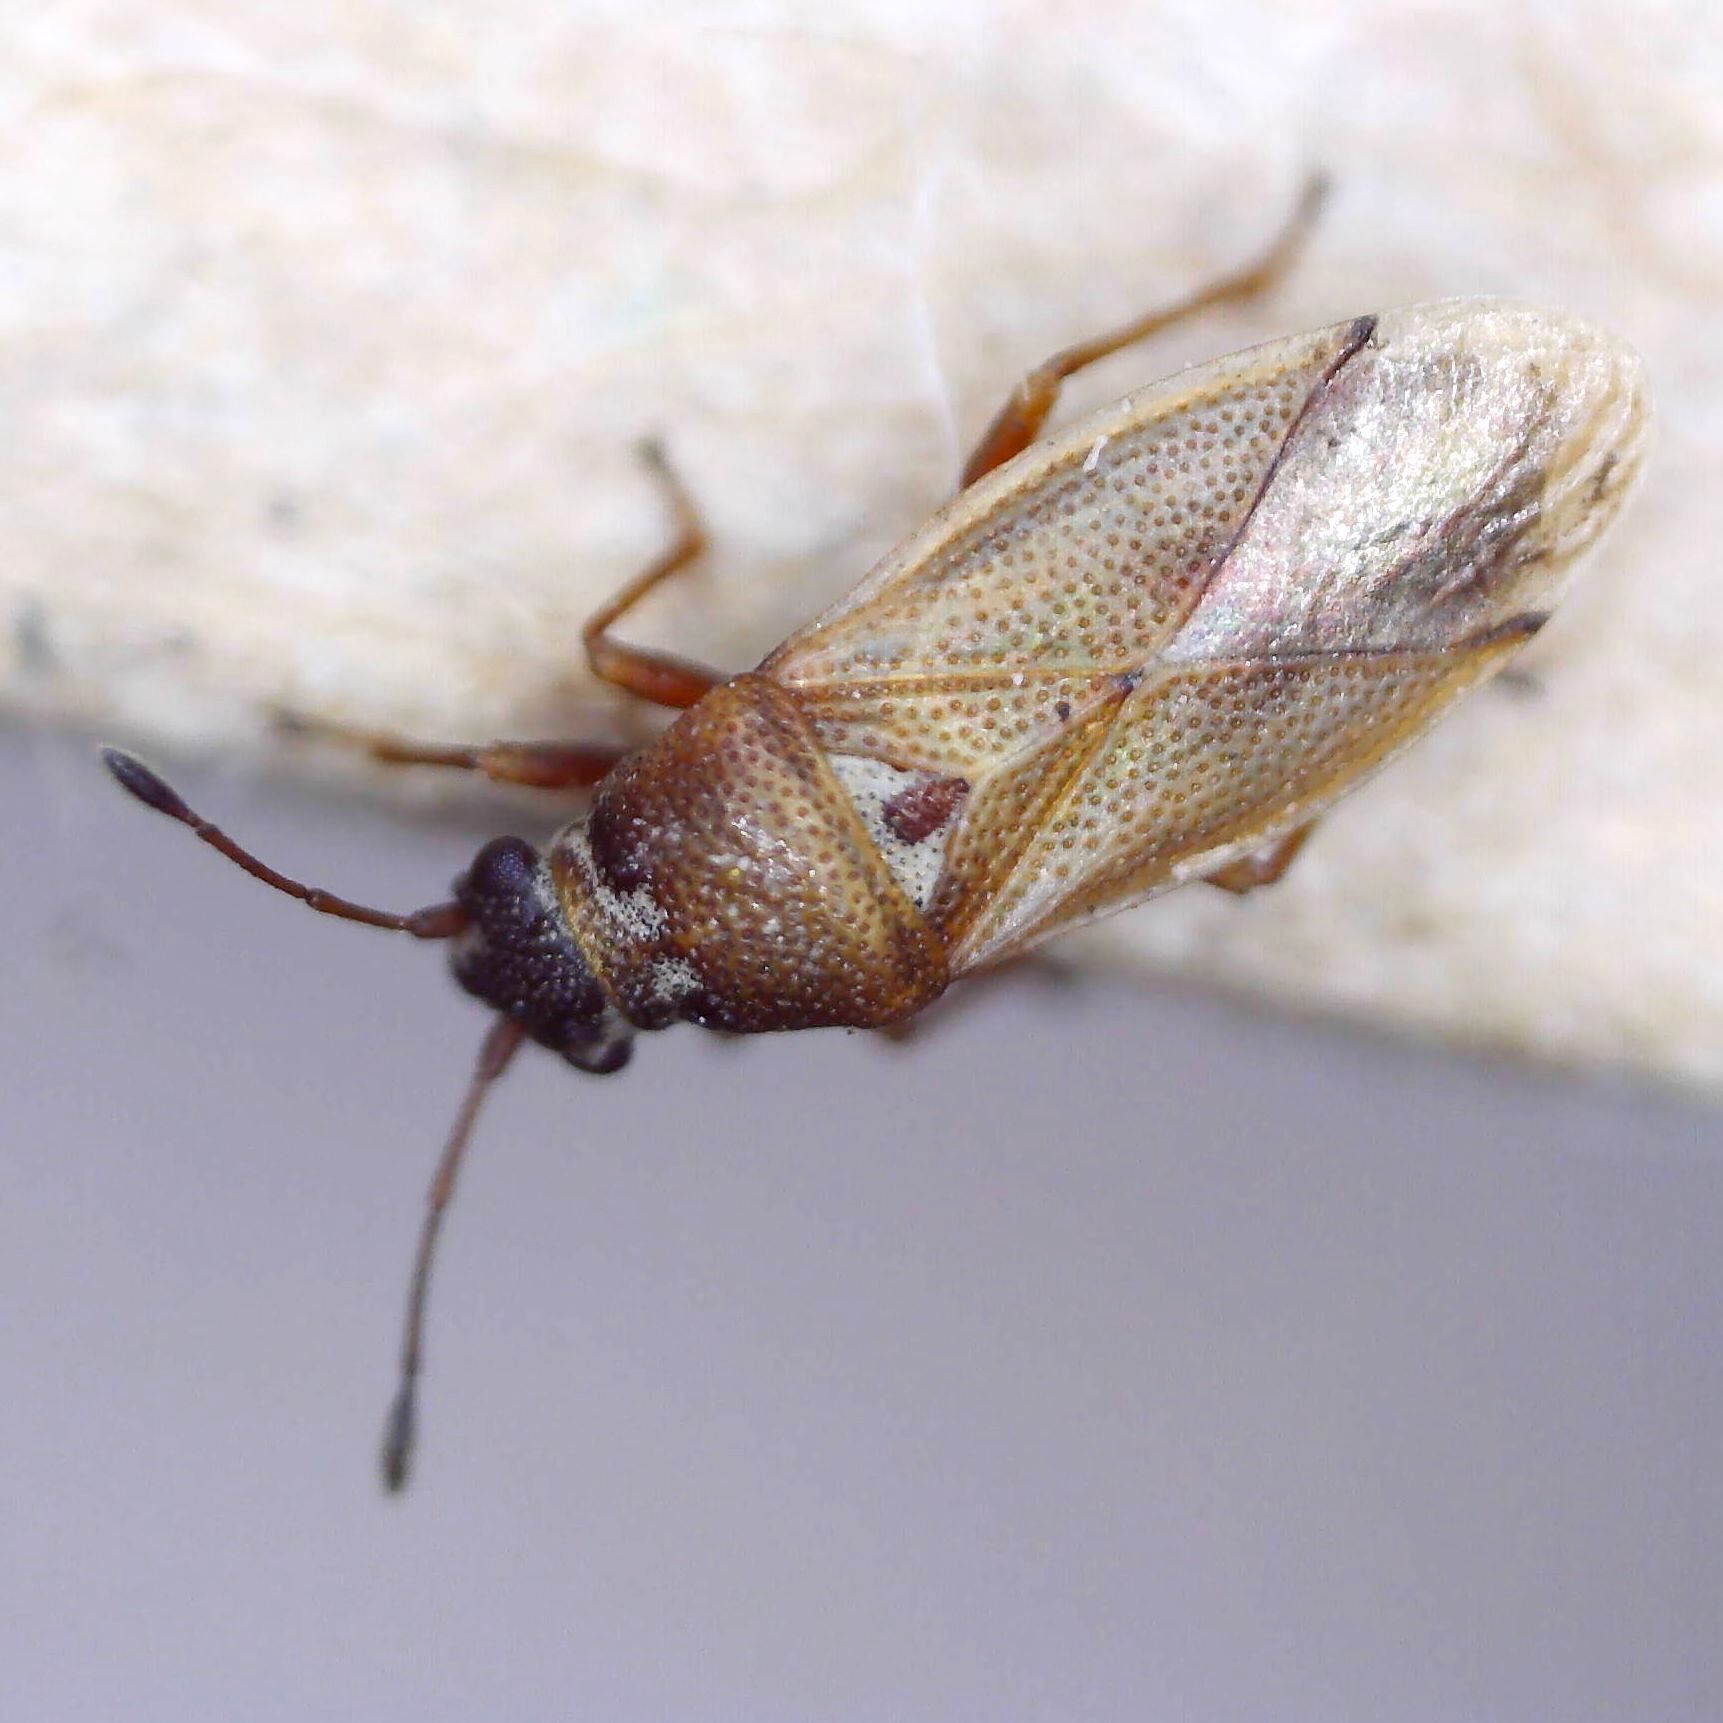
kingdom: Animalia
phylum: Arthropoda
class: Insecta
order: Hemiptera
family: Cymidae
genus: Cymus
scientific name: Cymus melanocephalus
